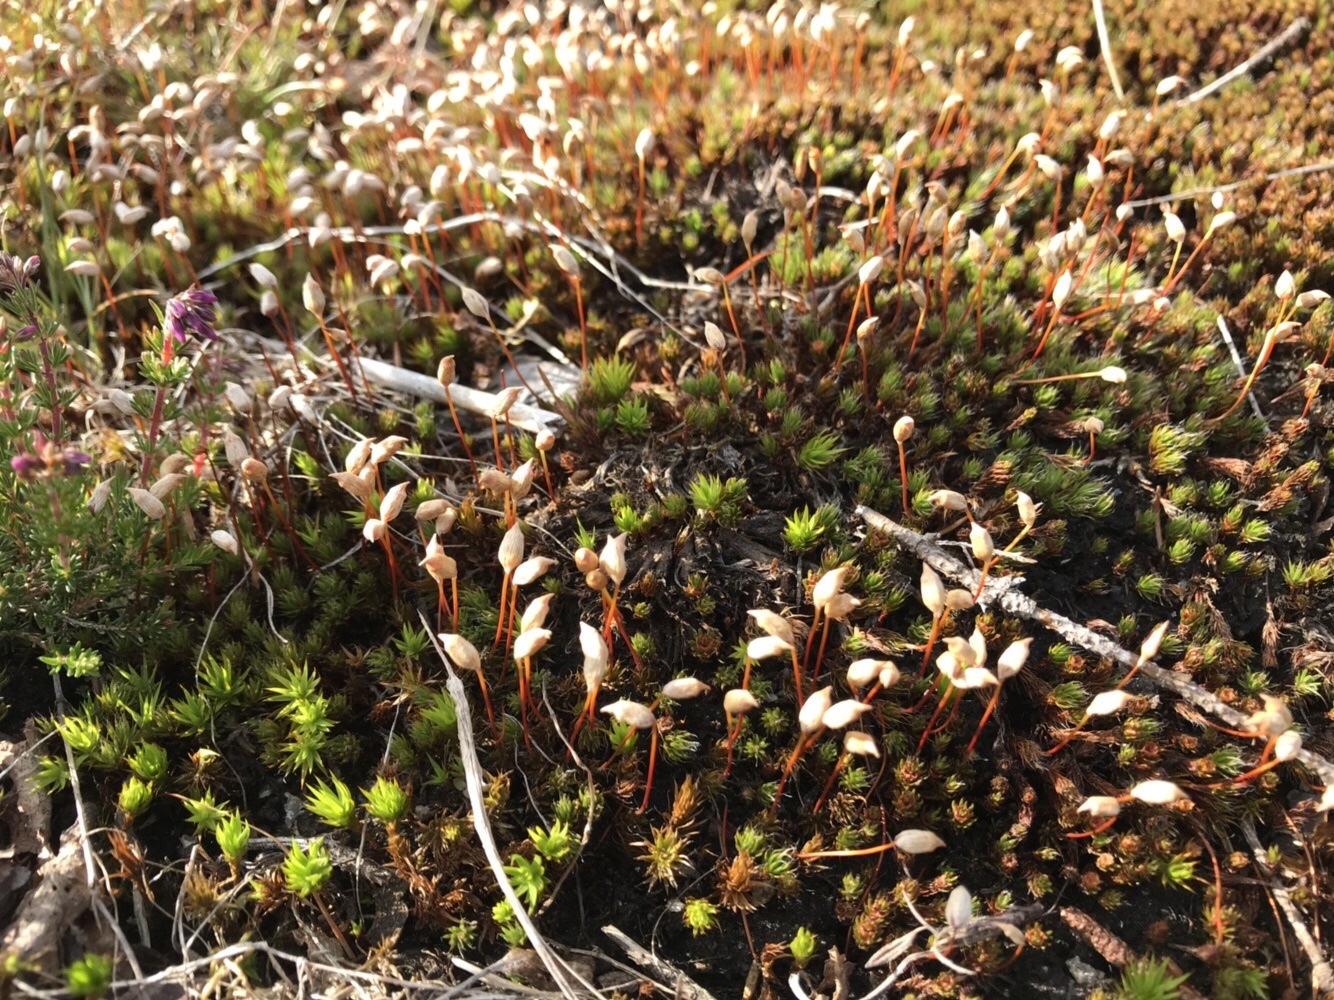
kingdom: Plantae
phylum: Bryophyta
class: Polytrichopsida
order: Polytrichales
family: Polytrichaceae
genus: Polytrichum
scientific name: Polytrichum juniperinum
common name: Juniper haircap moss
